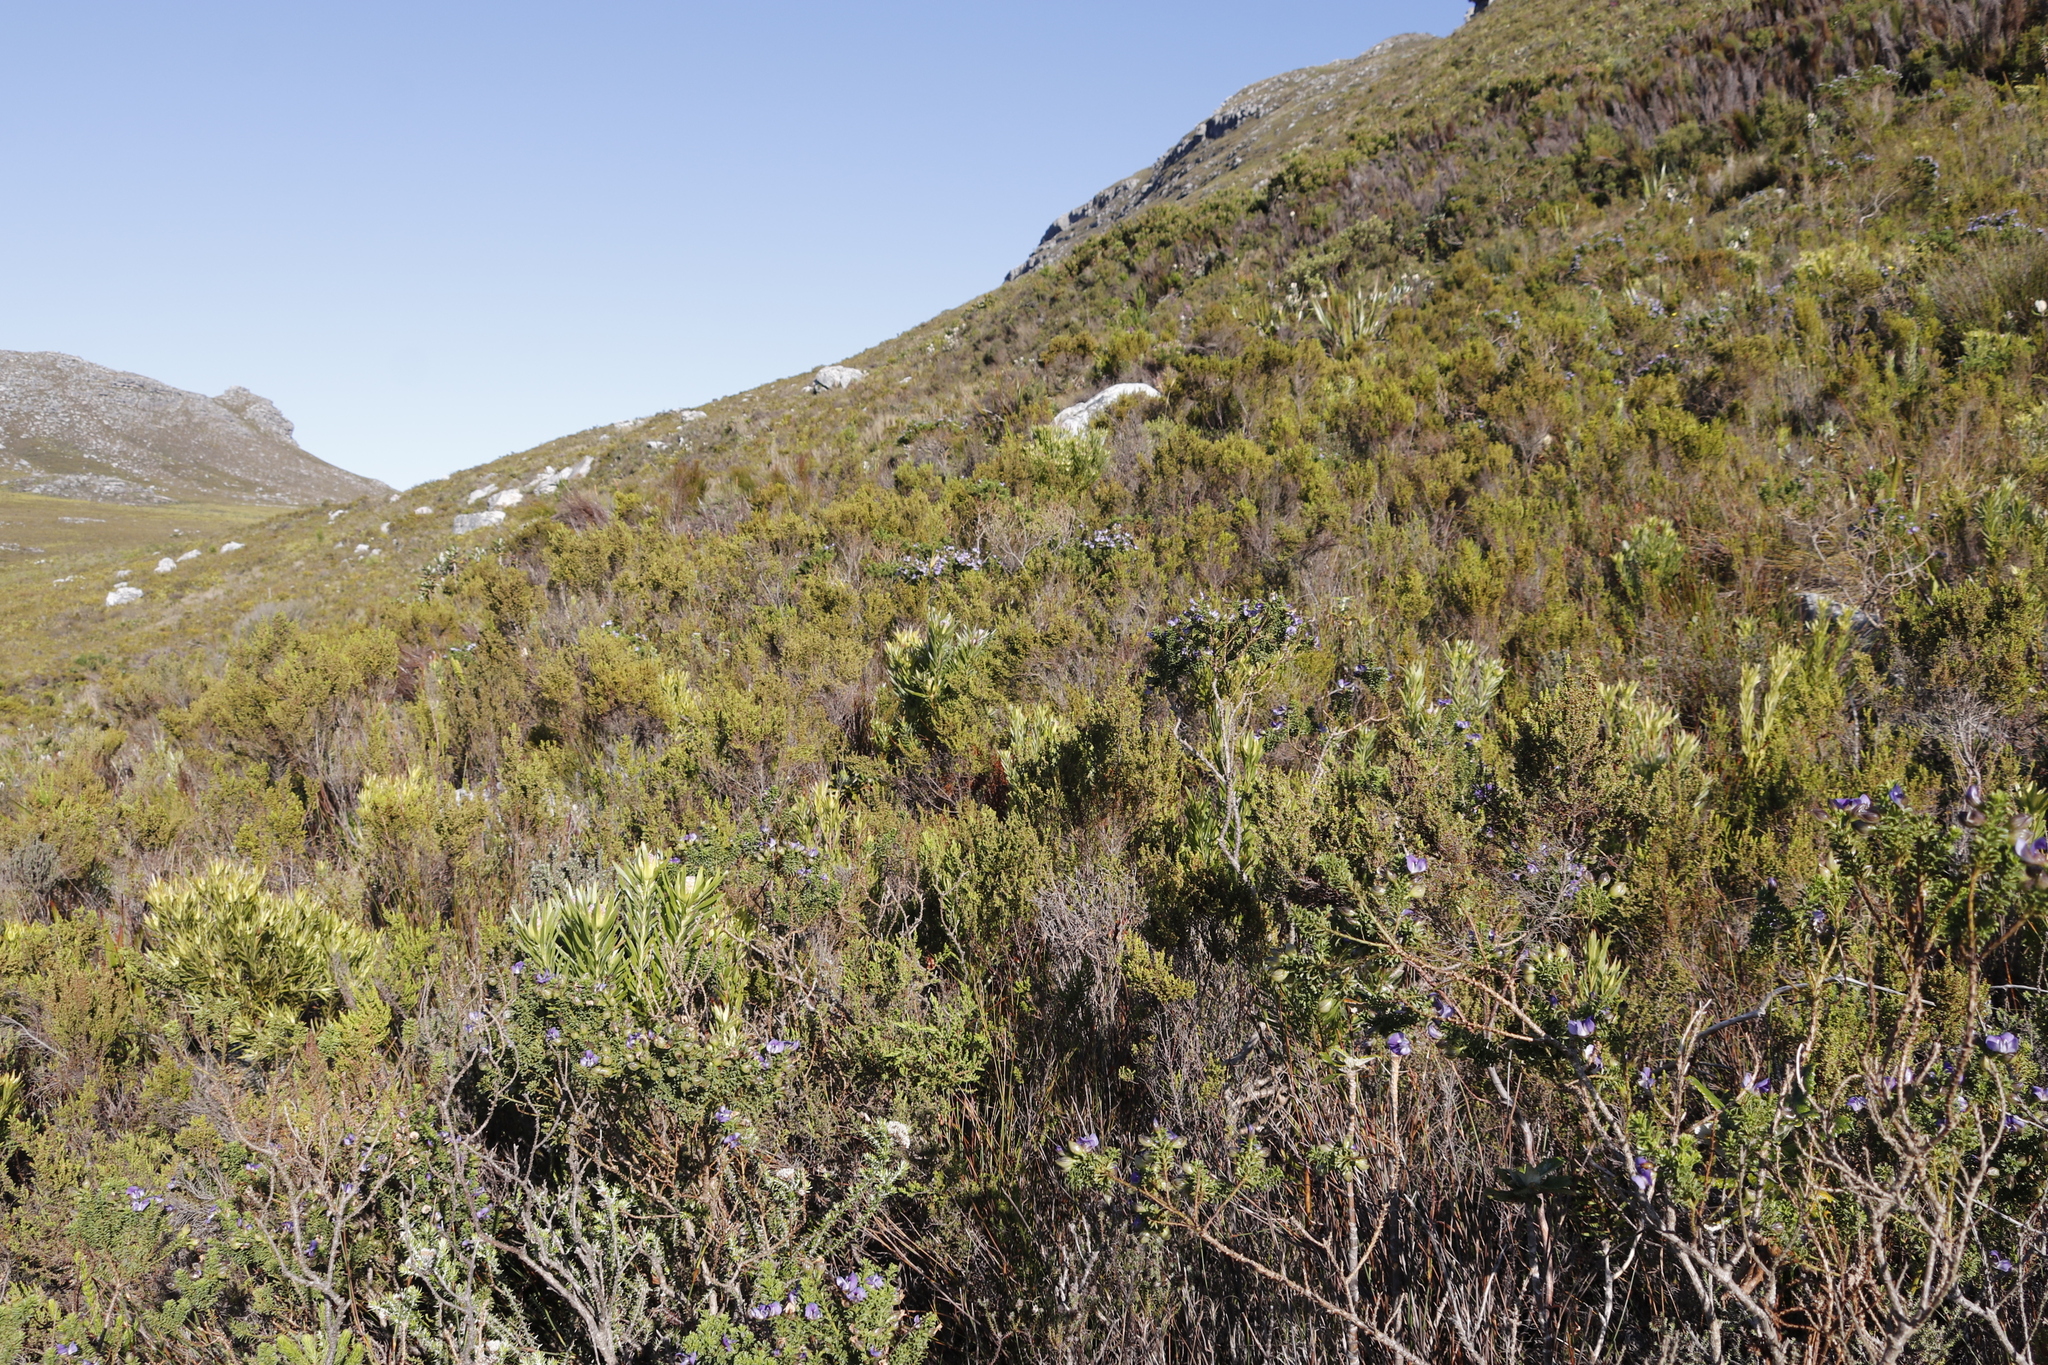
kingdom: Plantae
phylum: Tracheophyta
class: Magnoliopsida
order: Fabales
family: Fabaceae
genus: Psoralea
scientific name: Psoralea aculeata
